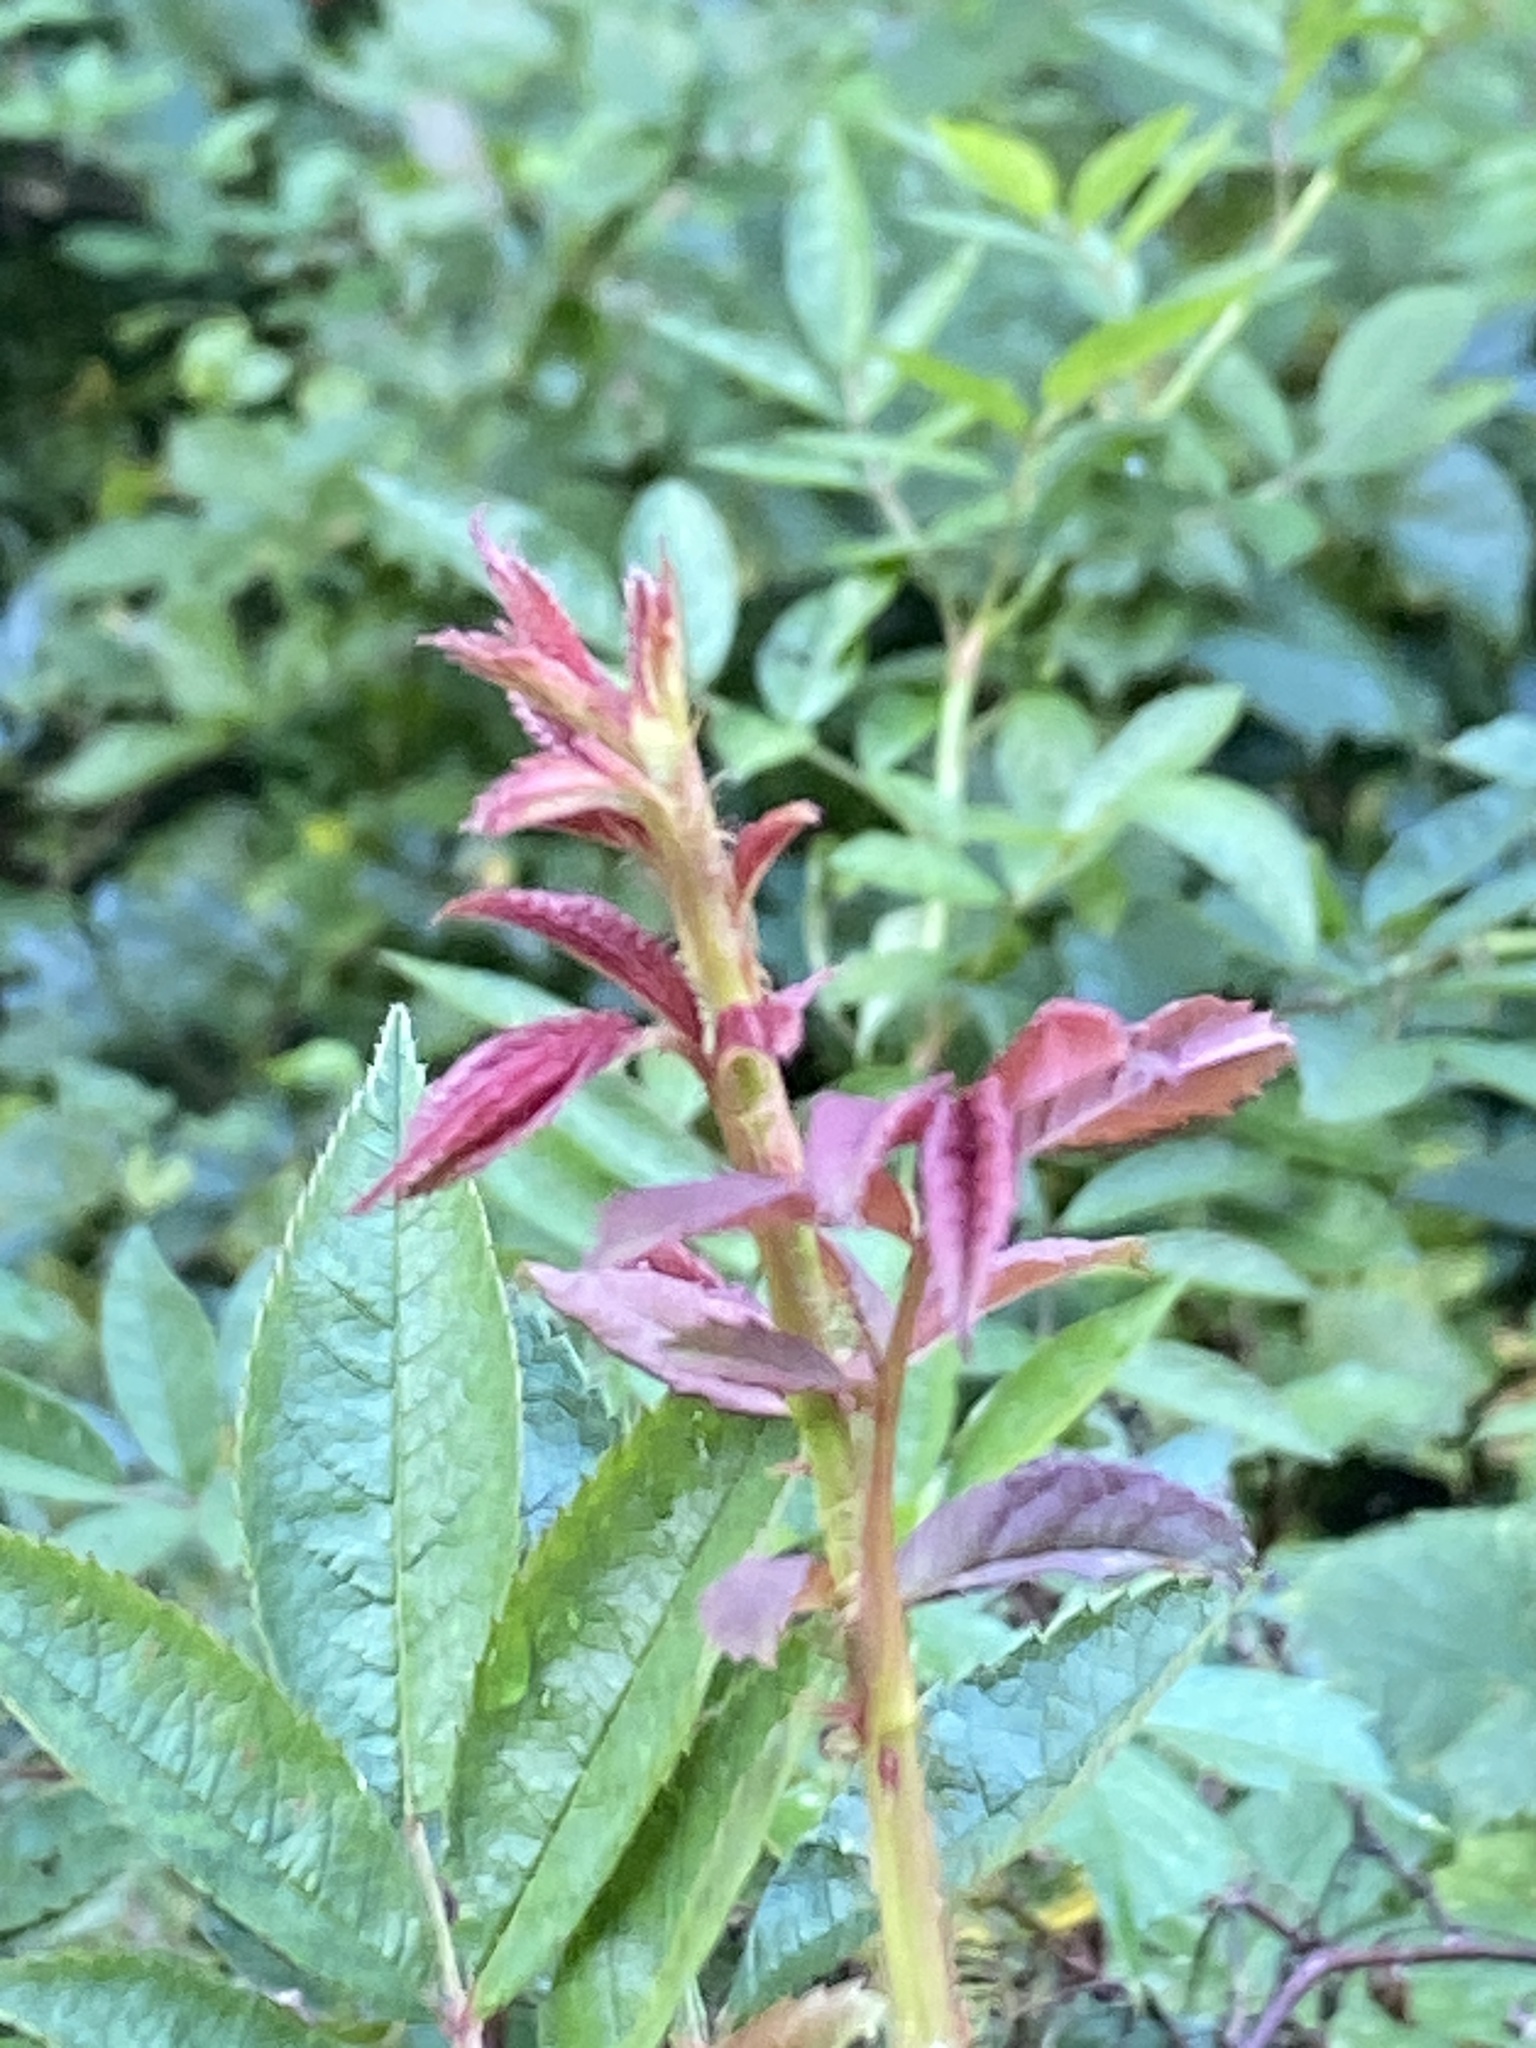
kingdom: Viruses
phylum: Negarnaviricota
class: Ellioviricetes
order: Bunyavirales
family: Fimoviridae
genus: Emaravirus
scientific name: Emaravirus rosae
